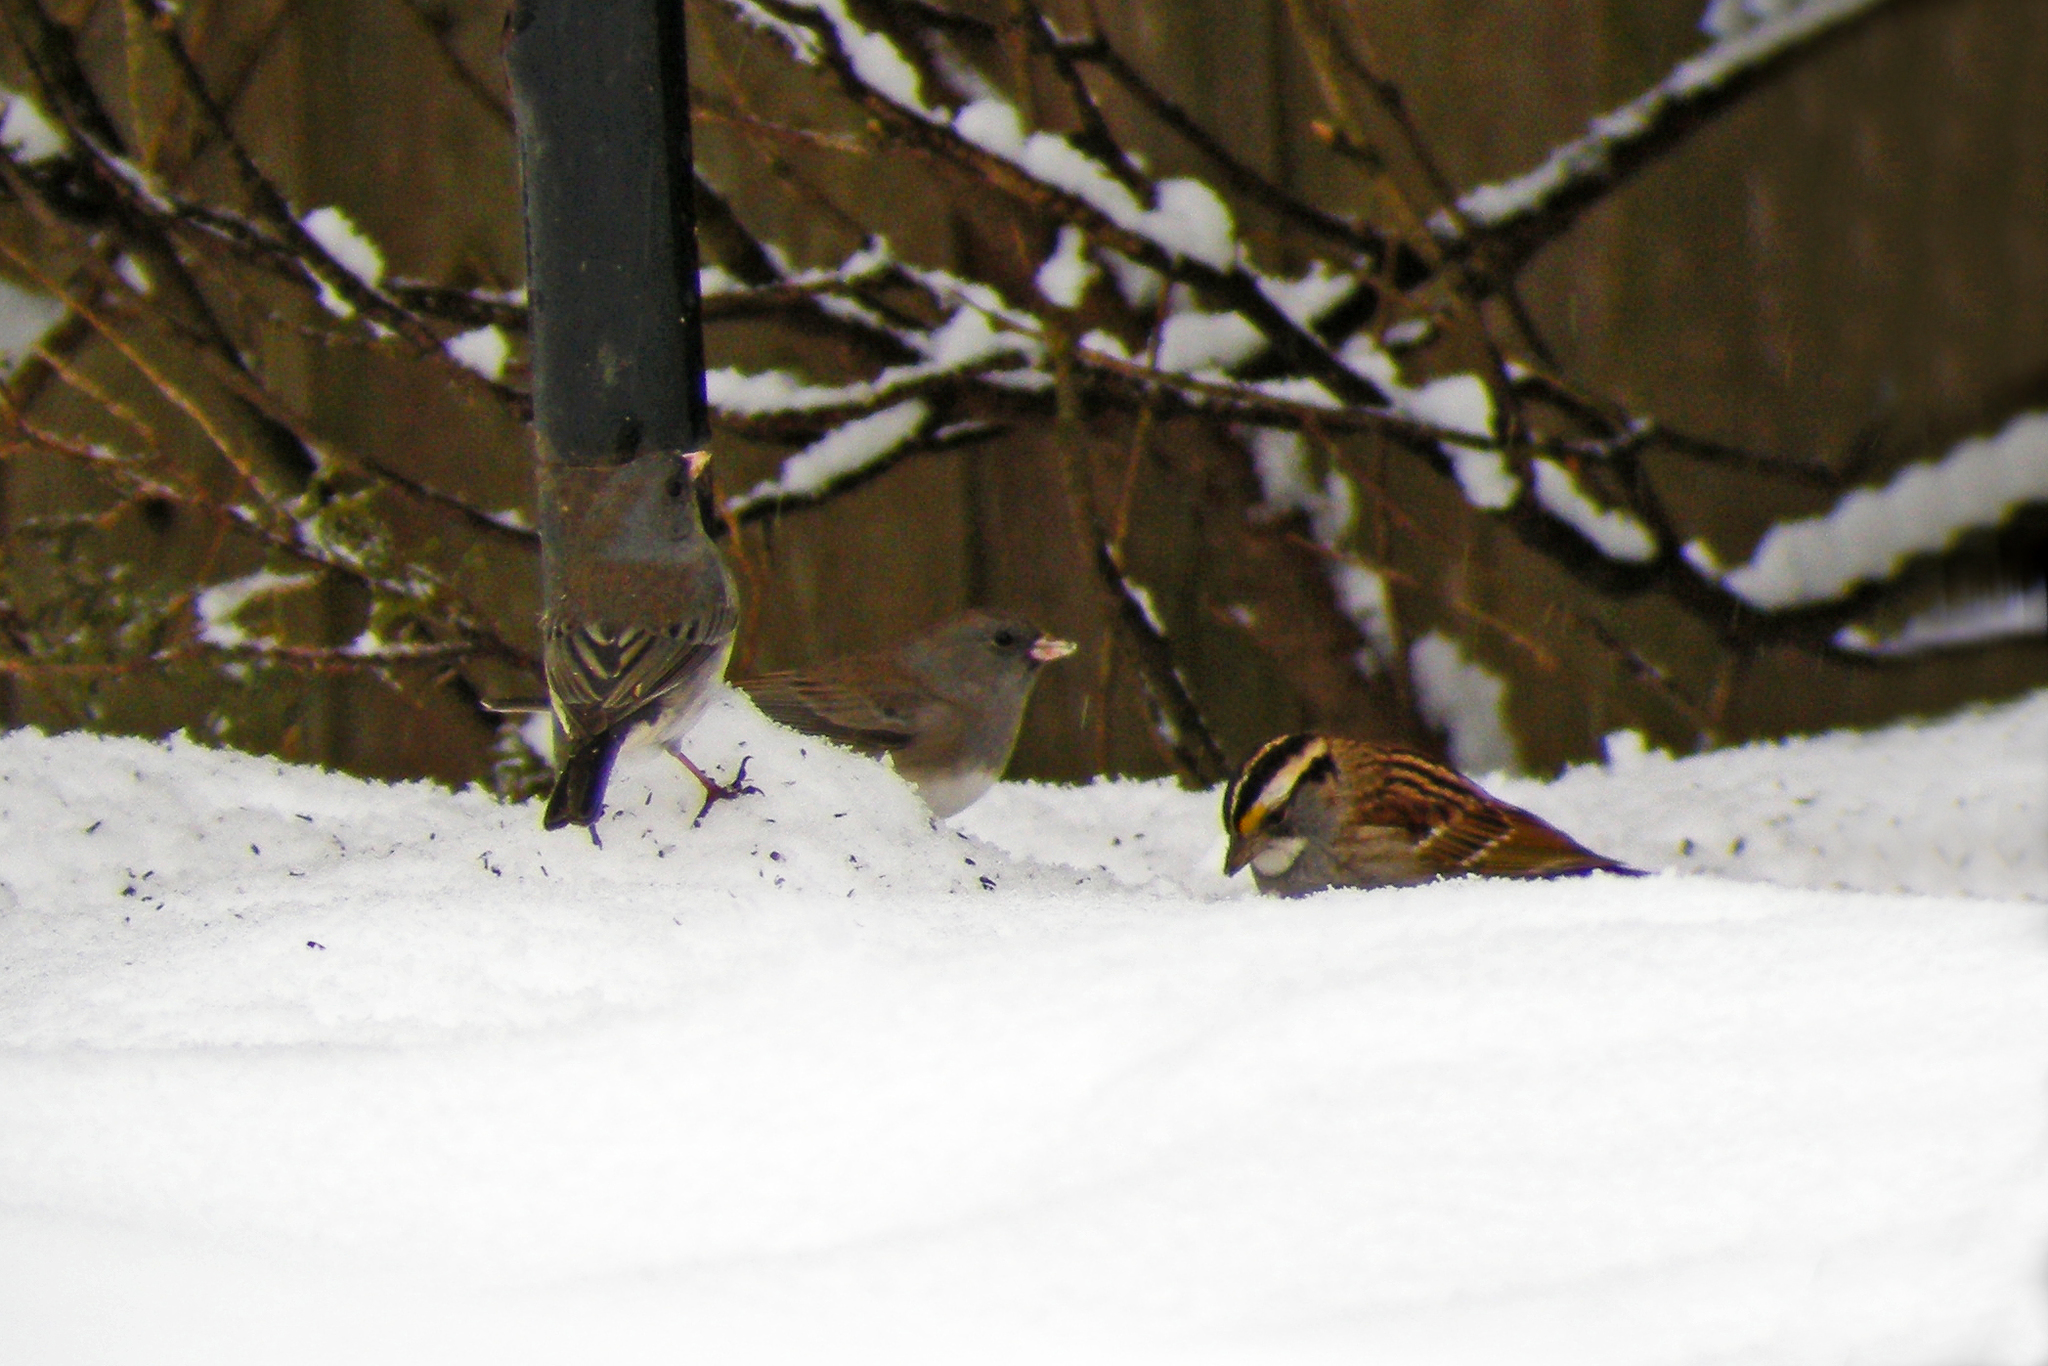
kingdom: Animalia
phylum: Chordata
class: Aves
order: Passeriformes
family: Passerellidae
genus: Junco
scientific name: Junco hyemalis
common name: Dark-eyed junco
